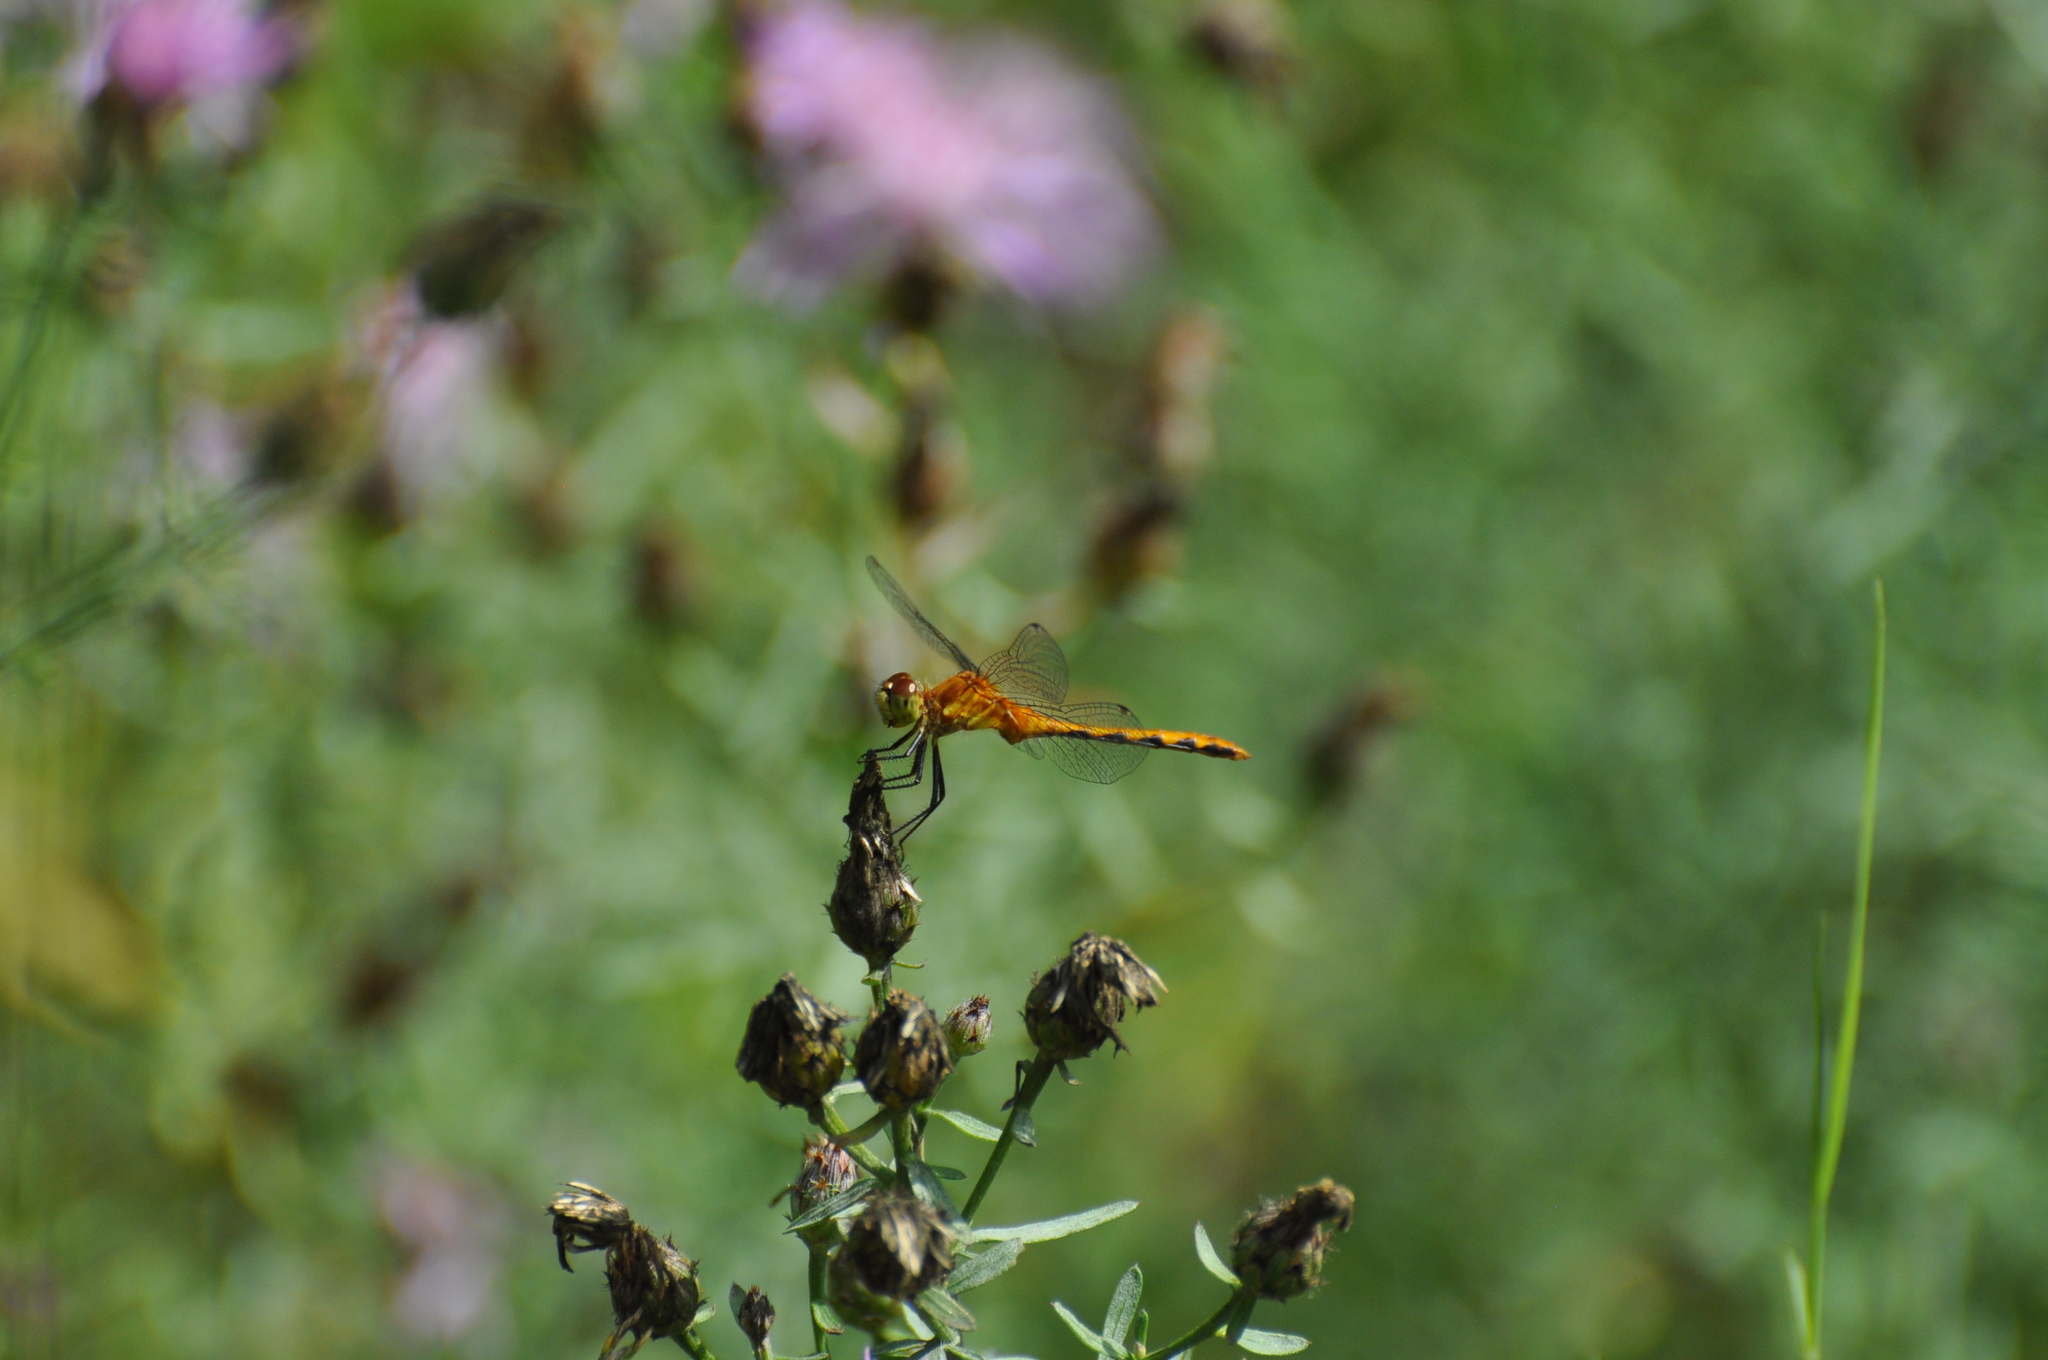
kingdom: Animalia
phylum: Arthropoda
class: Insecta
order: Odonata
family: Libellulidae
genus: Sympetrum
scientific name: Sympetrum obtrusum
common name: White-faced meadowhawk
